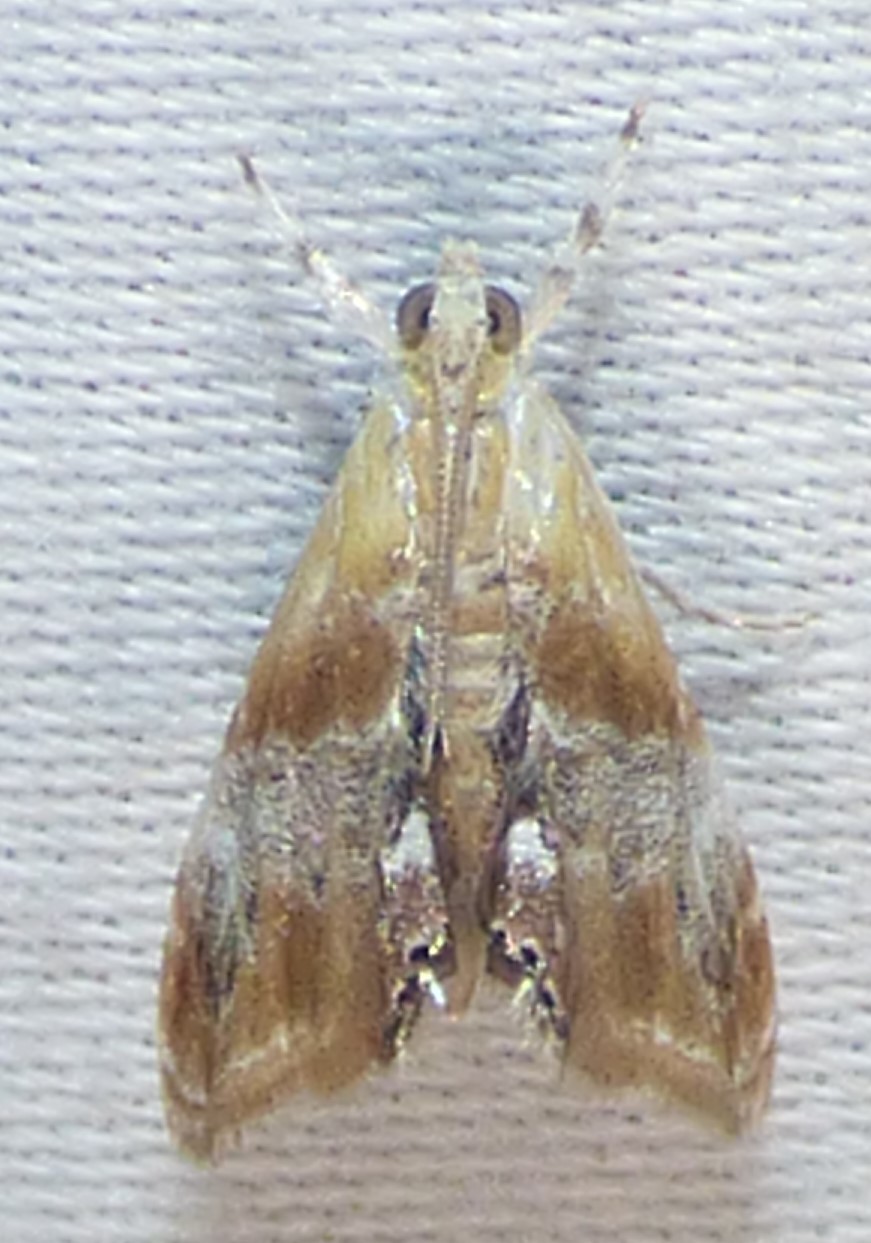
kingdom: Animalia
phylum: Arthropoda
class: Insecta
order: Lepidoptera
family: Crambidae
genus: Dicymolomia
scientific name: Dicymolomia julianalis
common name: Julia's dicymolomia moth
